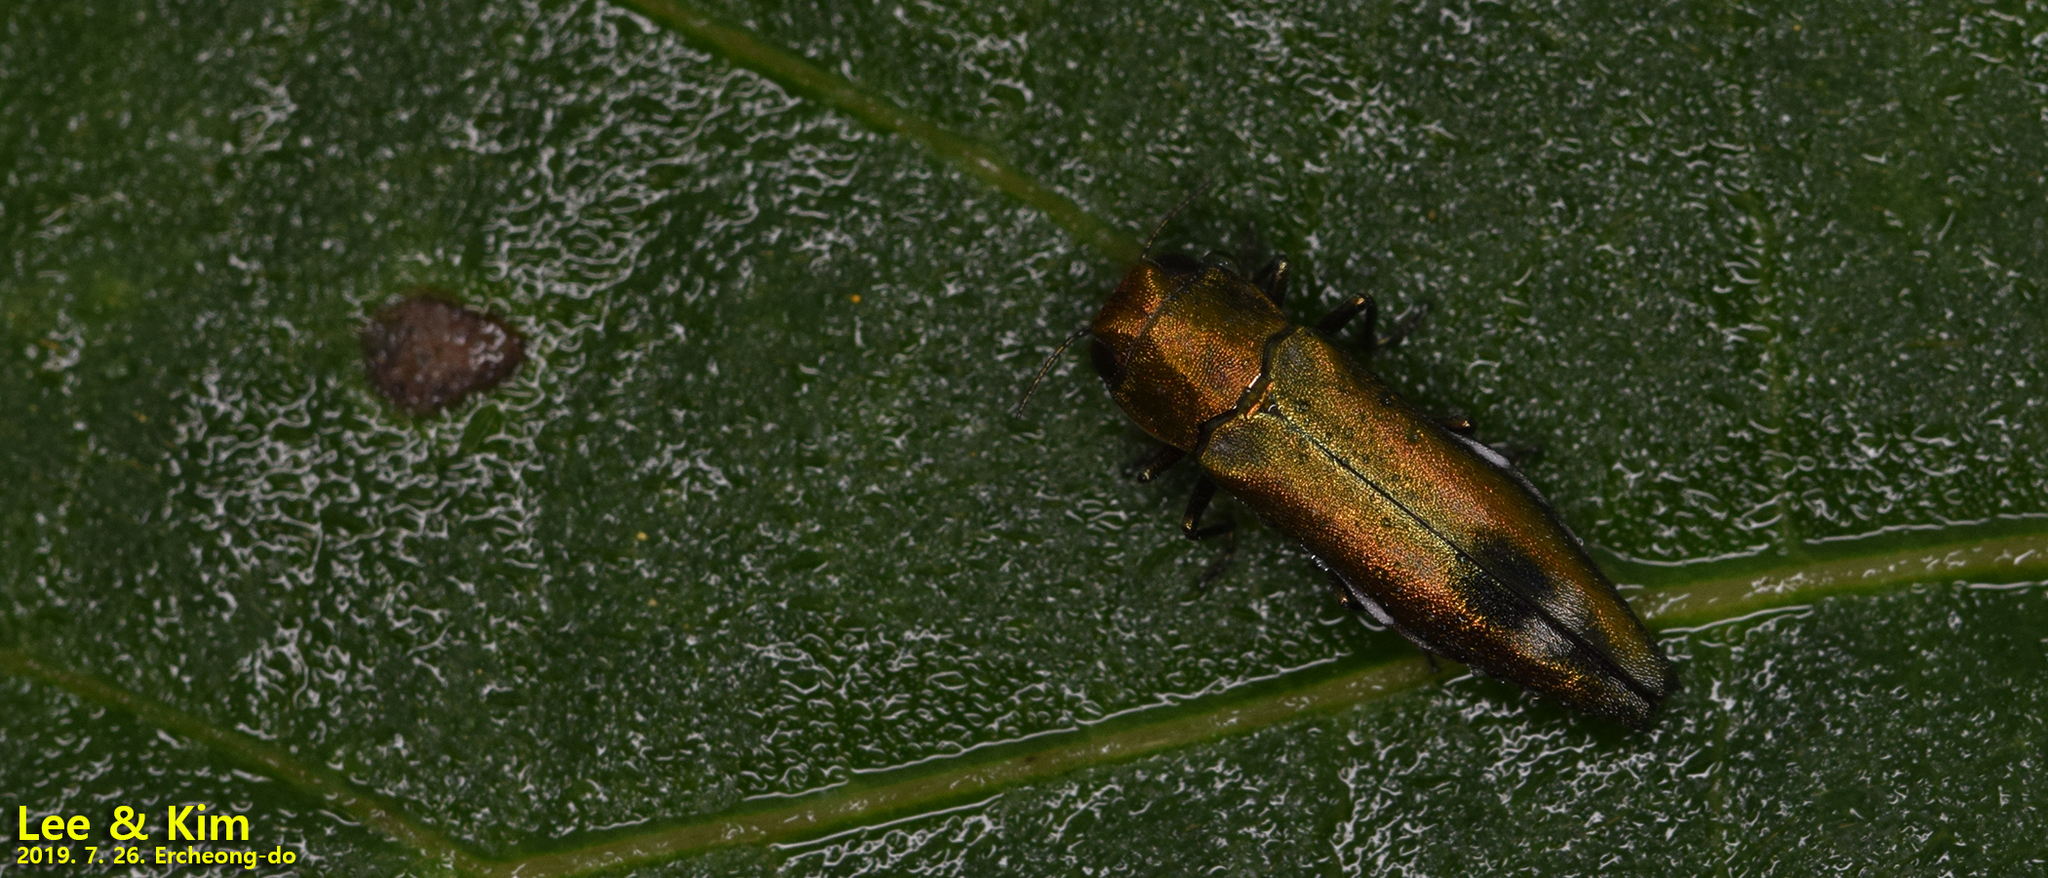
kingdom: Animalia
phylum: Arthropoda
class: Insecta
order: Coleoptera
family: Buprestidae
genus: Agrilus
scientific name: Agrilus chujoi
